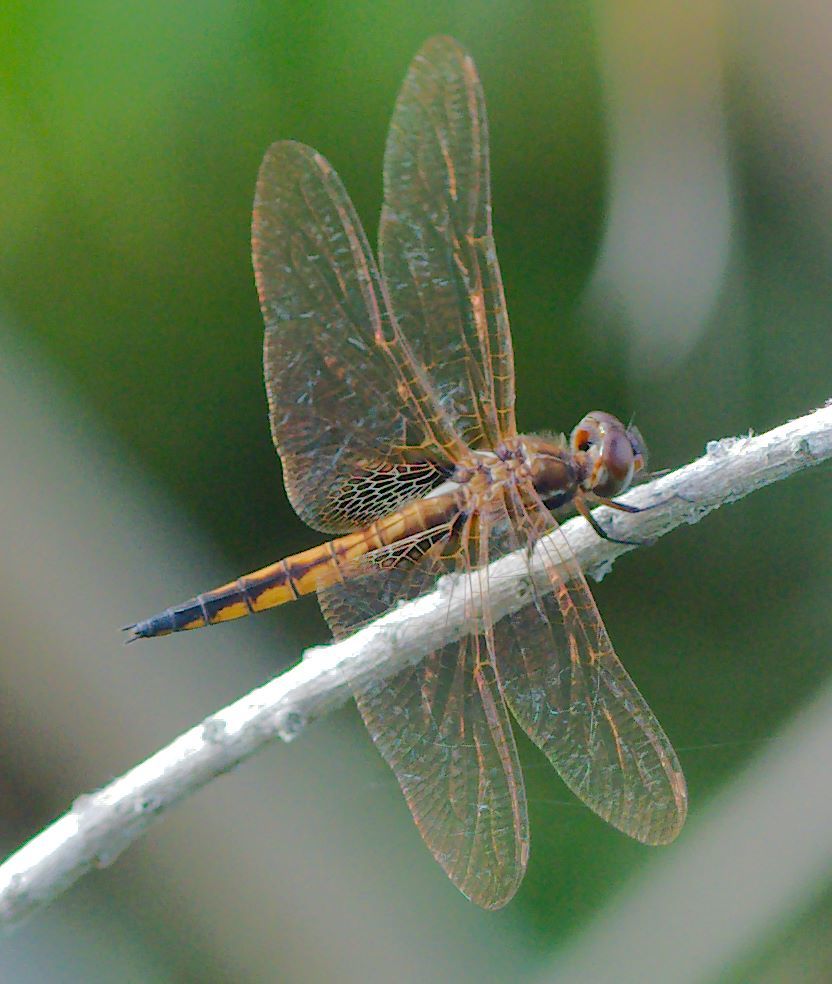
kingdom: Animalia
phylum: Arthropoda
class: Insecta
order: Odonata
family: Libellulidae
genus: Miathyria
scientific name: Miathyria marcella
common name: Hyacinth glider
